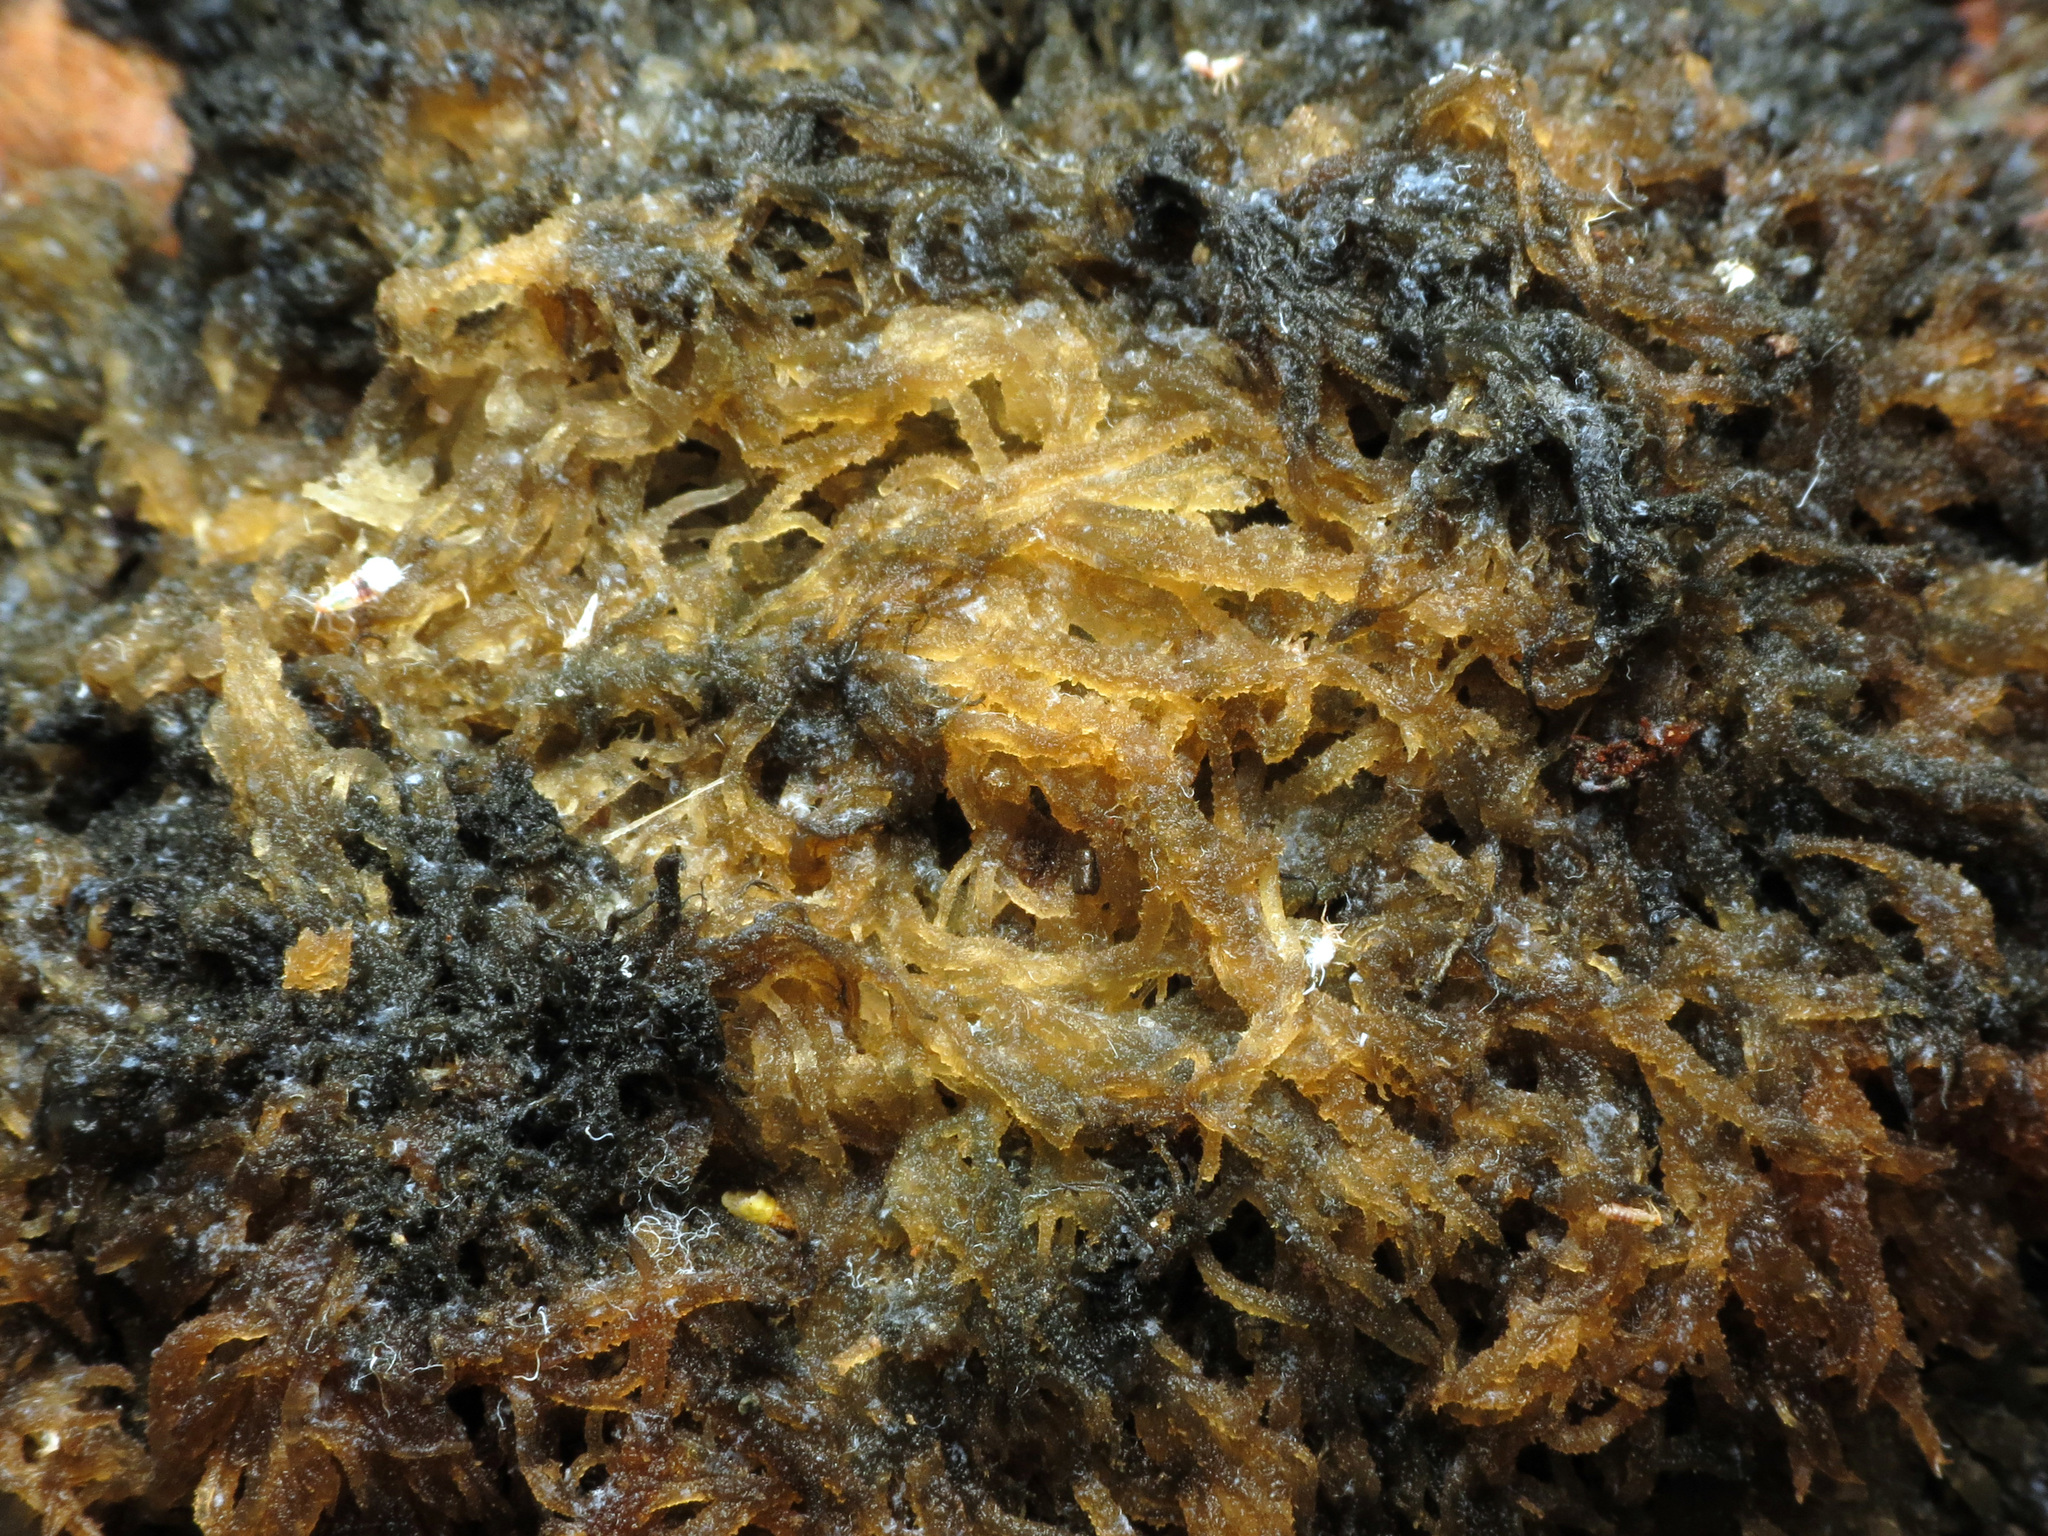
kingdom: Fungi
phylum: Ascomycota
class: Dothideomycetes
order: Capnodiales
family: Capnodiaceae
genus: Scorias
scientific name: Scorias spongiosa
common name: Black sooty mold
